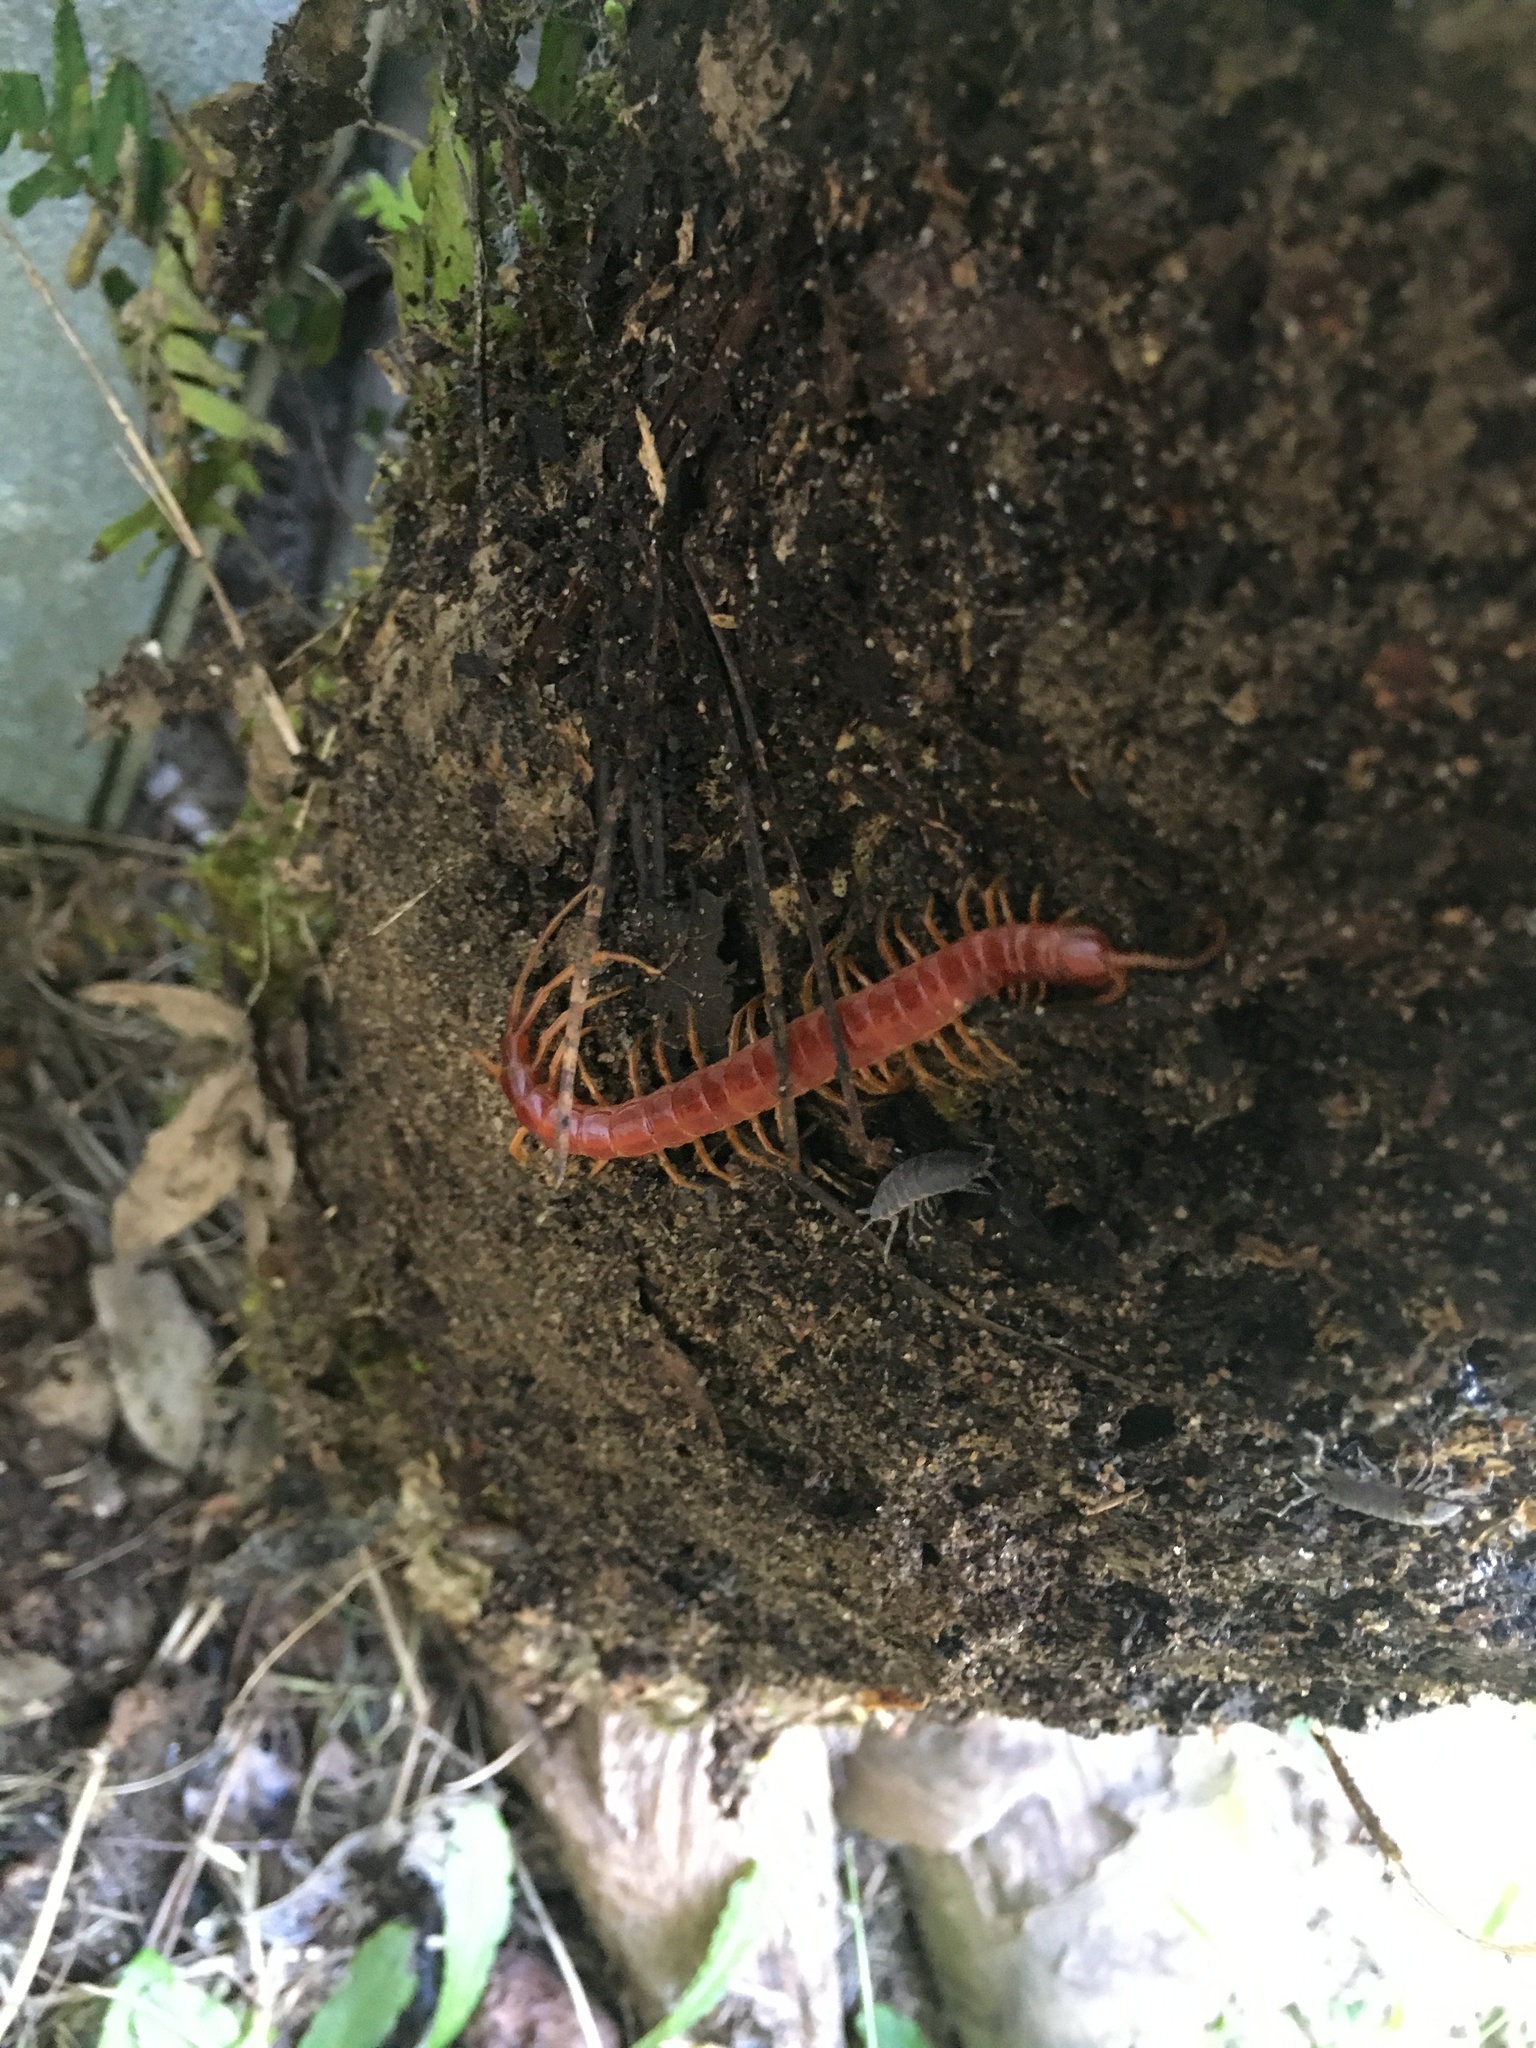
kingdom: Animalia
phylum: Arthropoda
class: Chilopoda
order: Scolopendromorpha
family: Scolopocryptopidae
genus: Scolopocryptops
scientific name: Scolopocryptops sexspinosus
